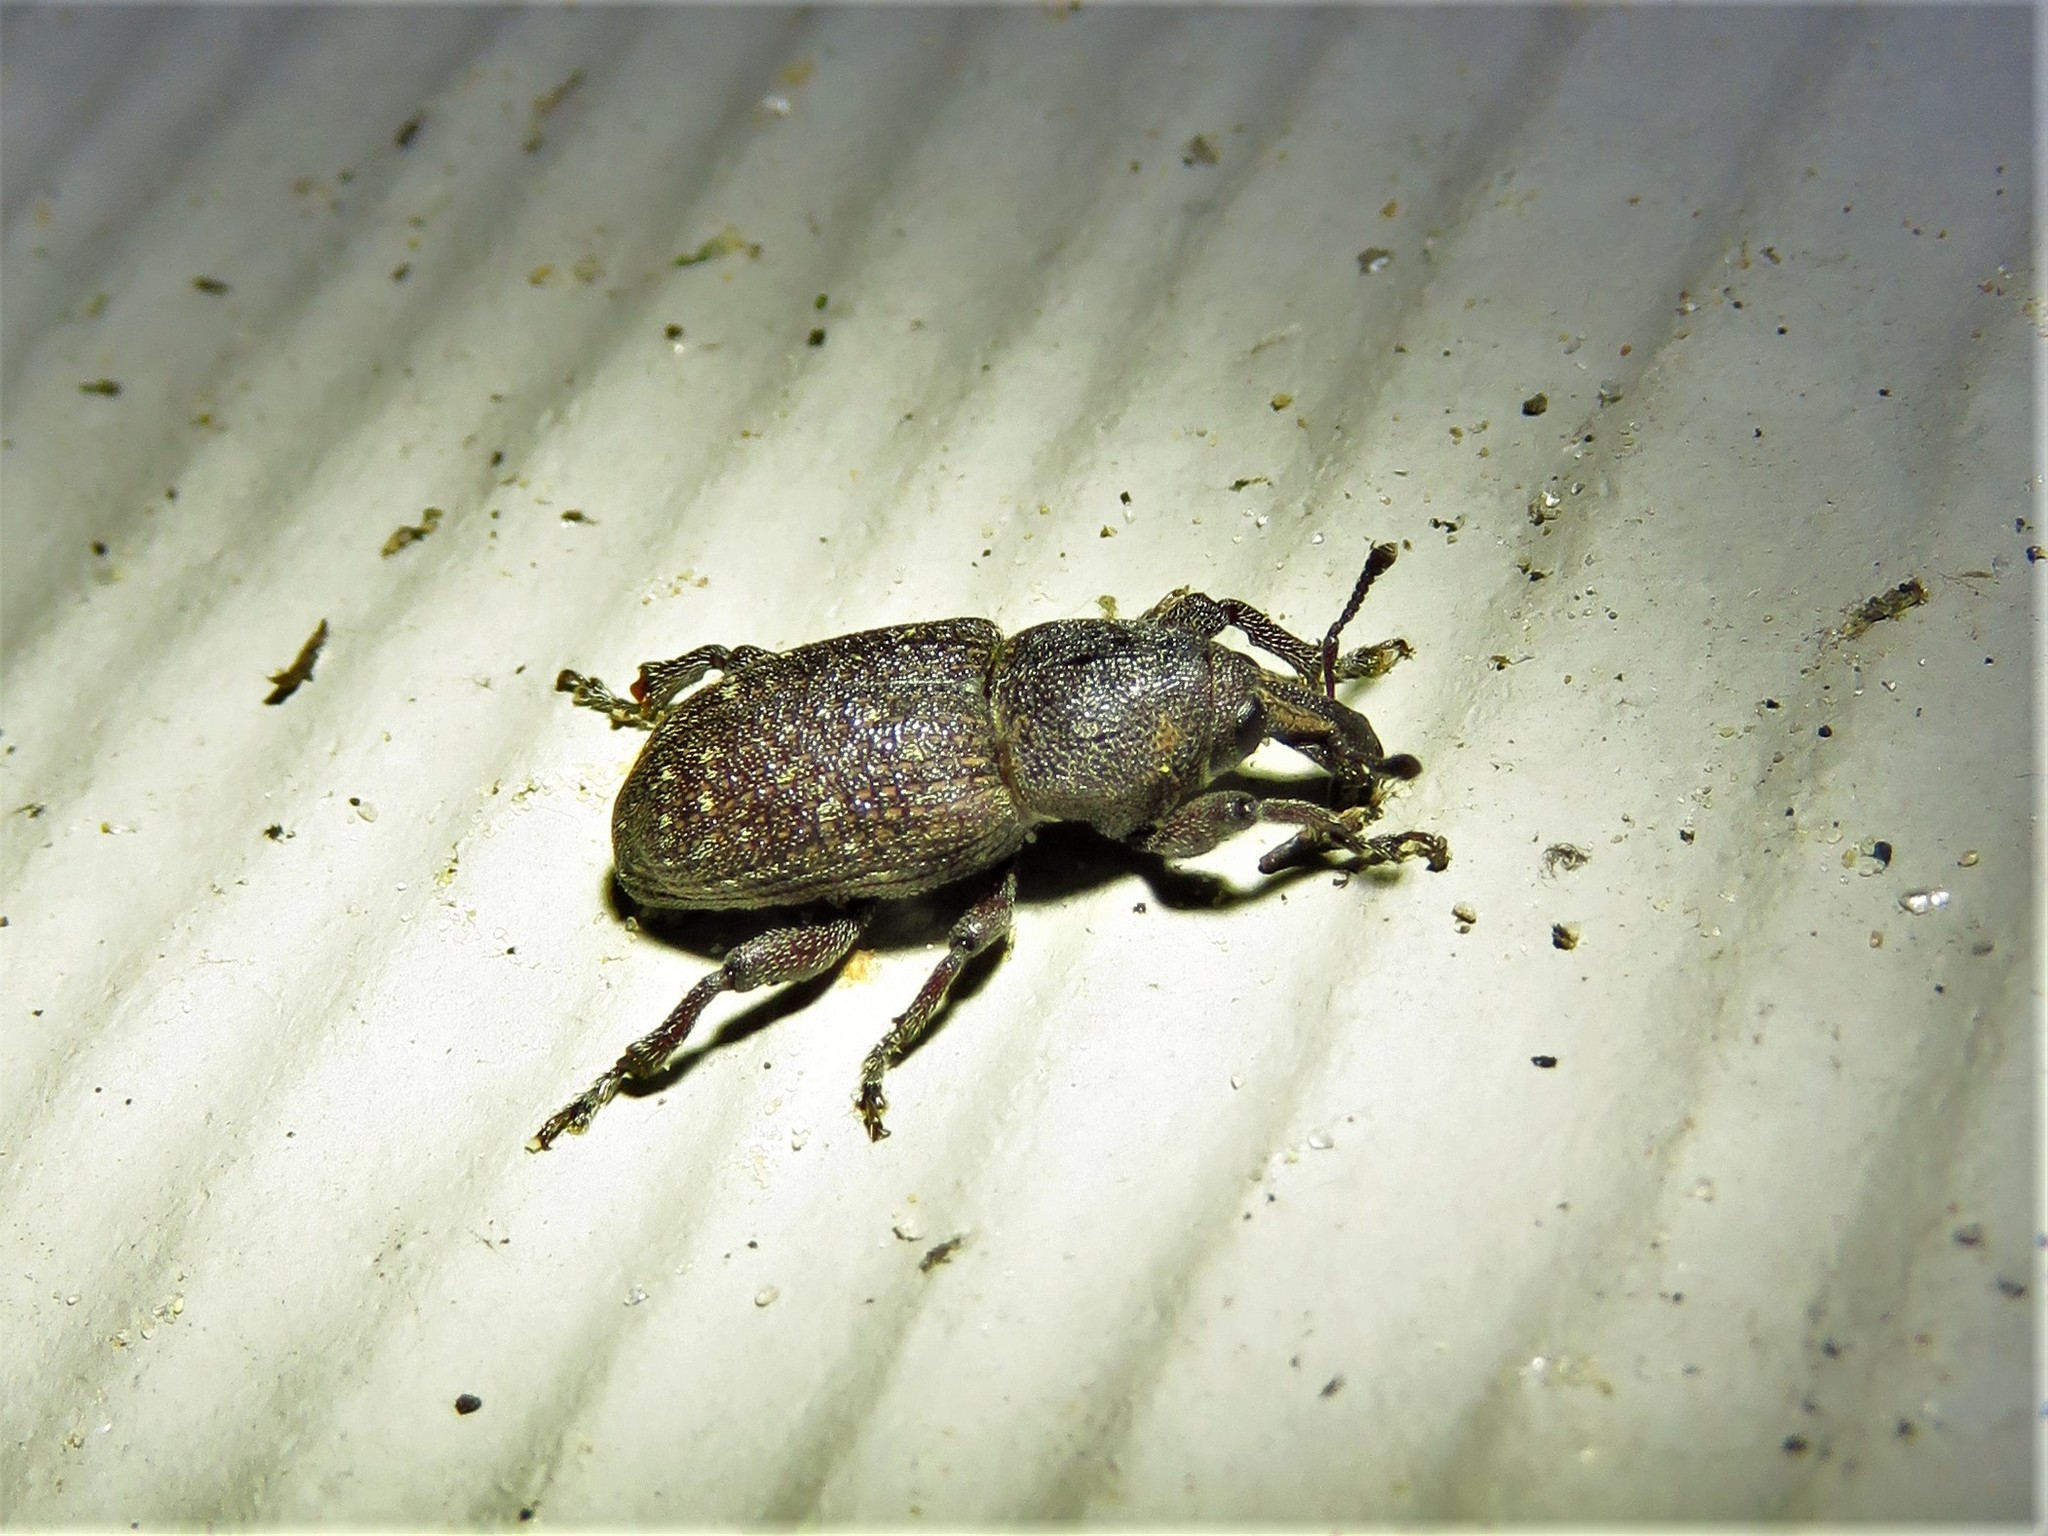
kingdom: Animalia
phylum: Arthropoda
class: Insecta
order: Coleoptera
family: Curculionidae
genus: Pachylobius
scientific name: Pachylobius picivorus
